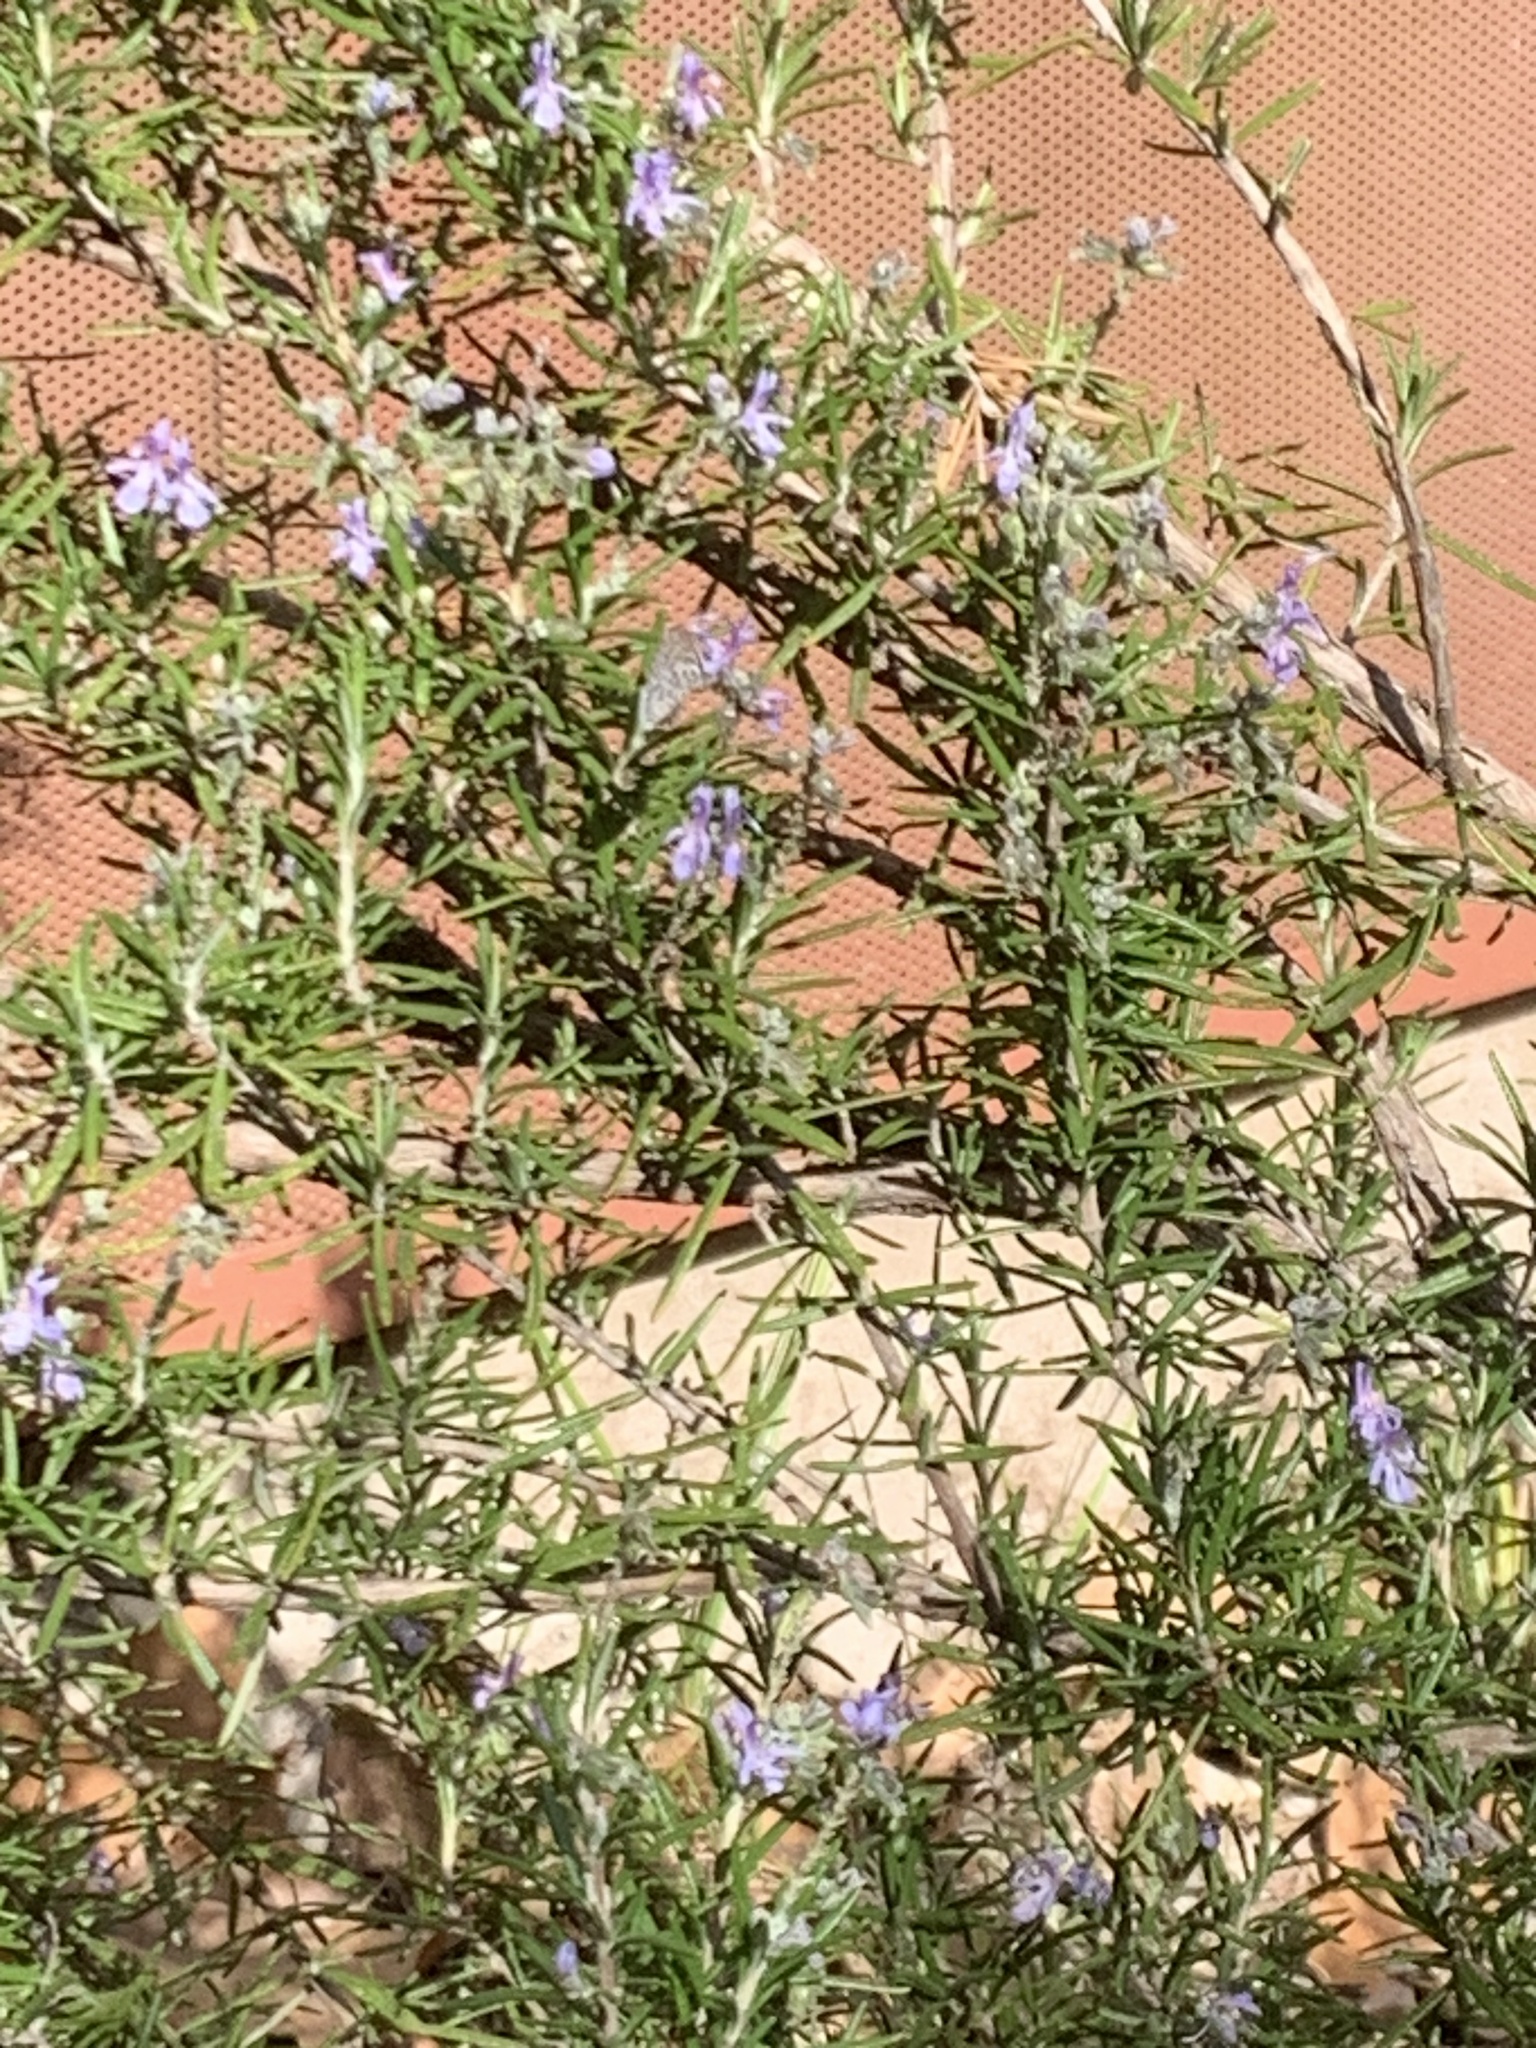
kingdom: Animalia
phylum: Arthropoda
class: Insecta
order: Lepidoptera
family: Lycaenidae
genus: Leptotes
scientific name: Leptotes cassius
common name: Cassius blue
